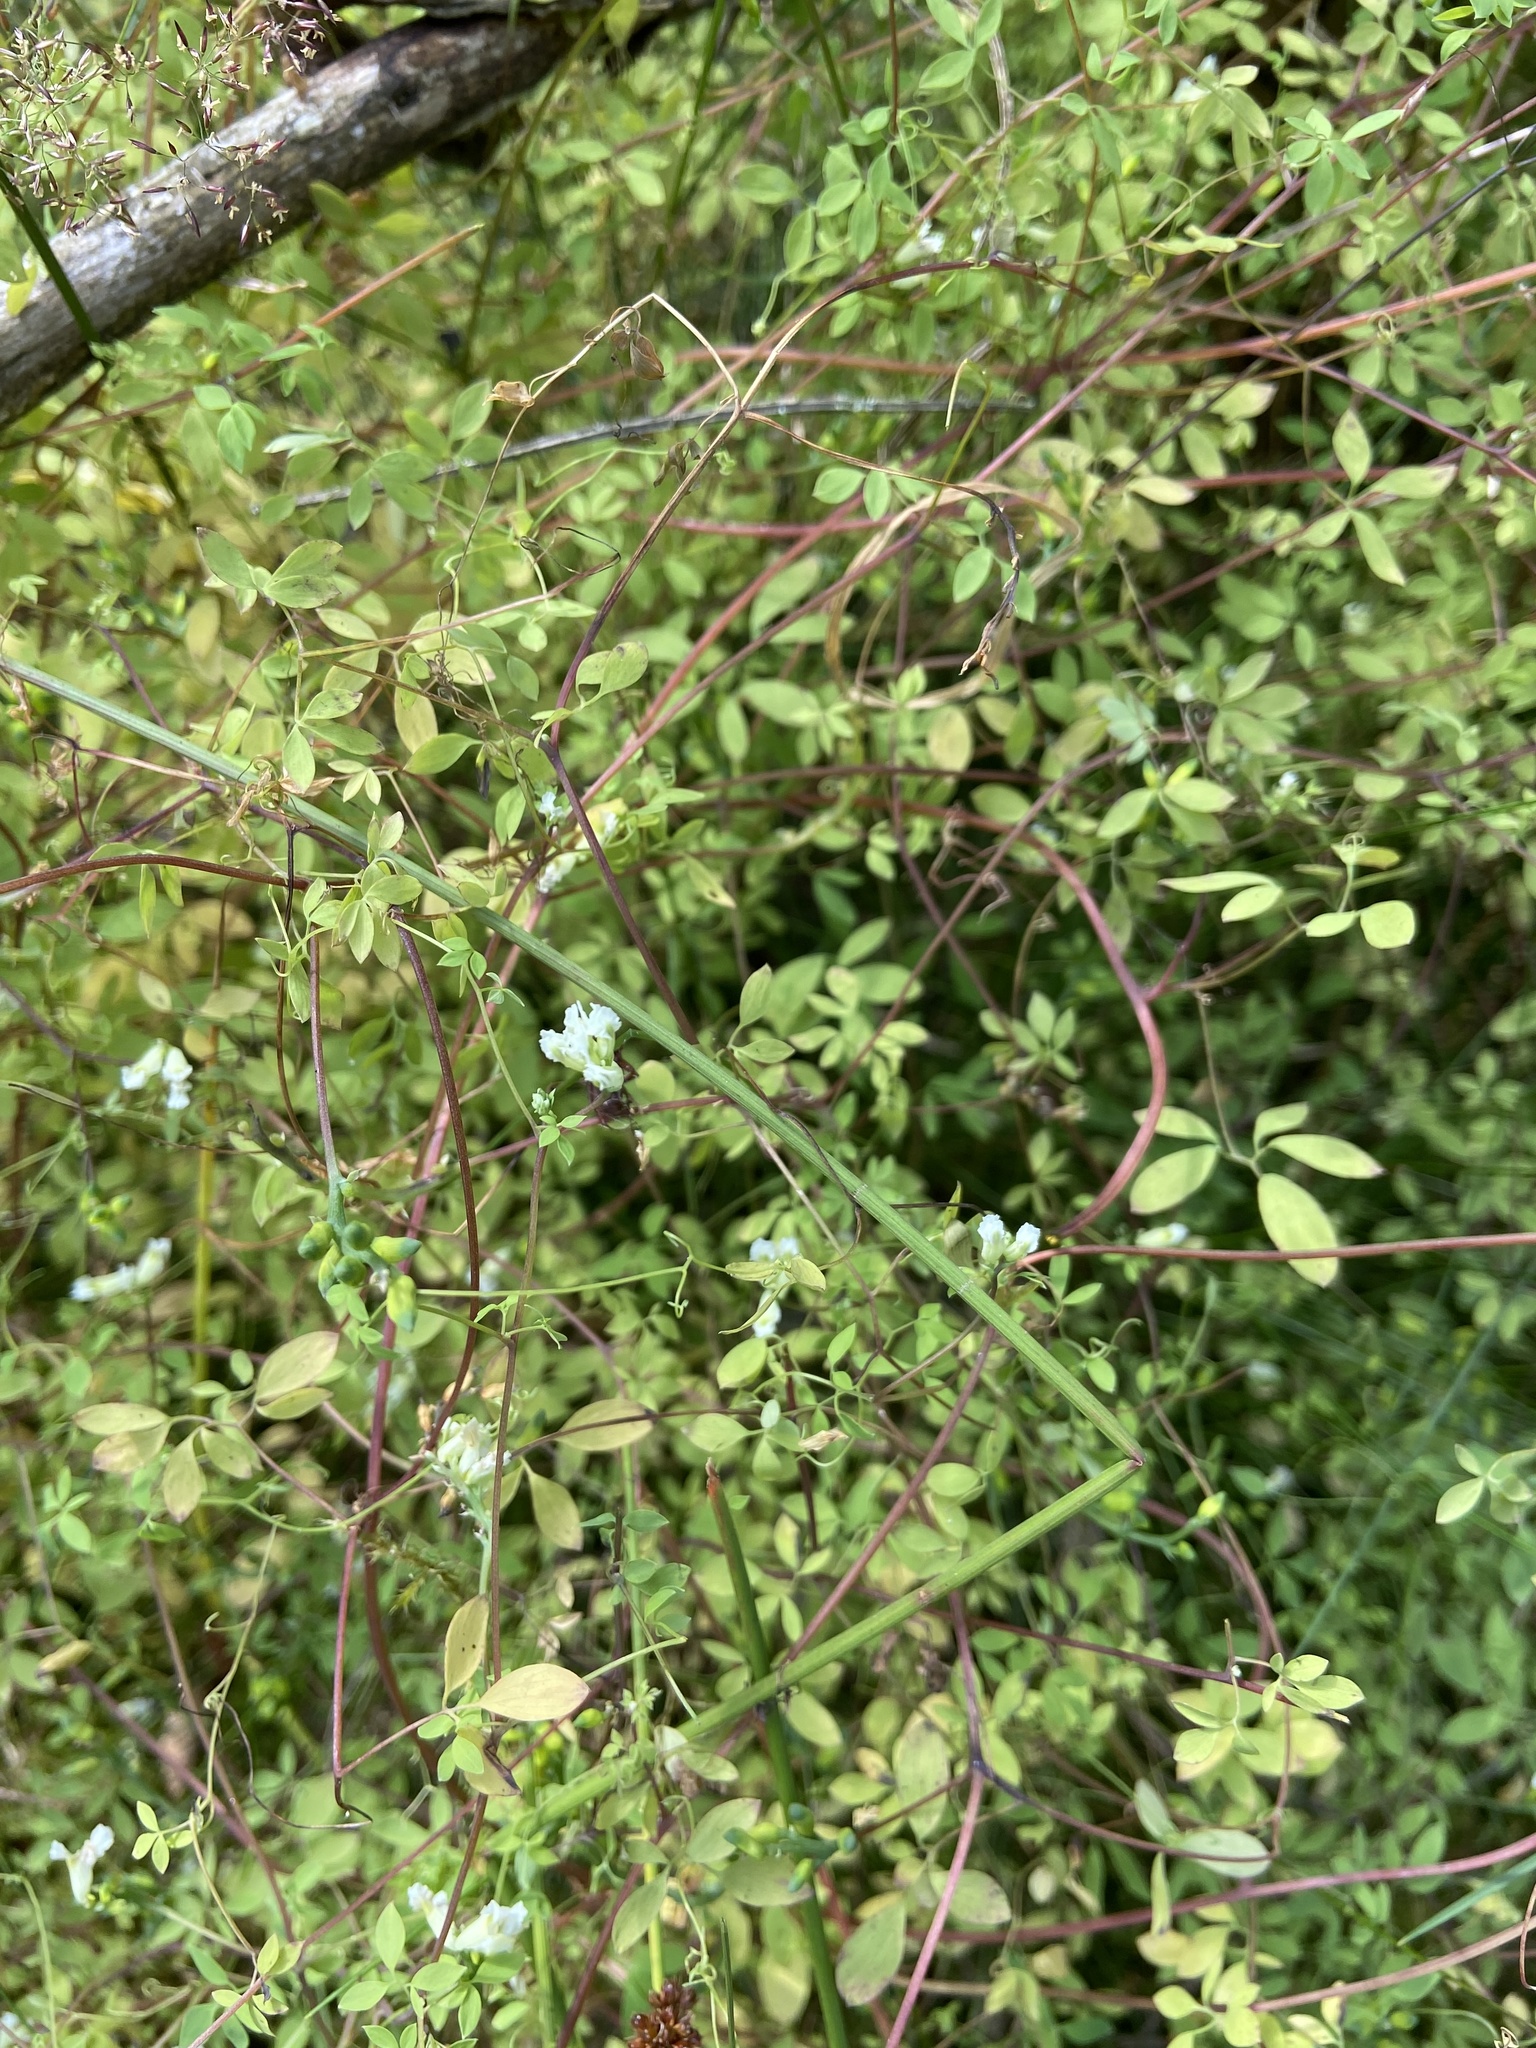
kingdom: Plantae
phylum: Tracheophyta
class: Magnoliopsida
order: Ranunculales
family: Papaveraceae
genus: Ceratocapnos
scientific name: Ceratocapnos claviculata
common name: Climbing corydalis
